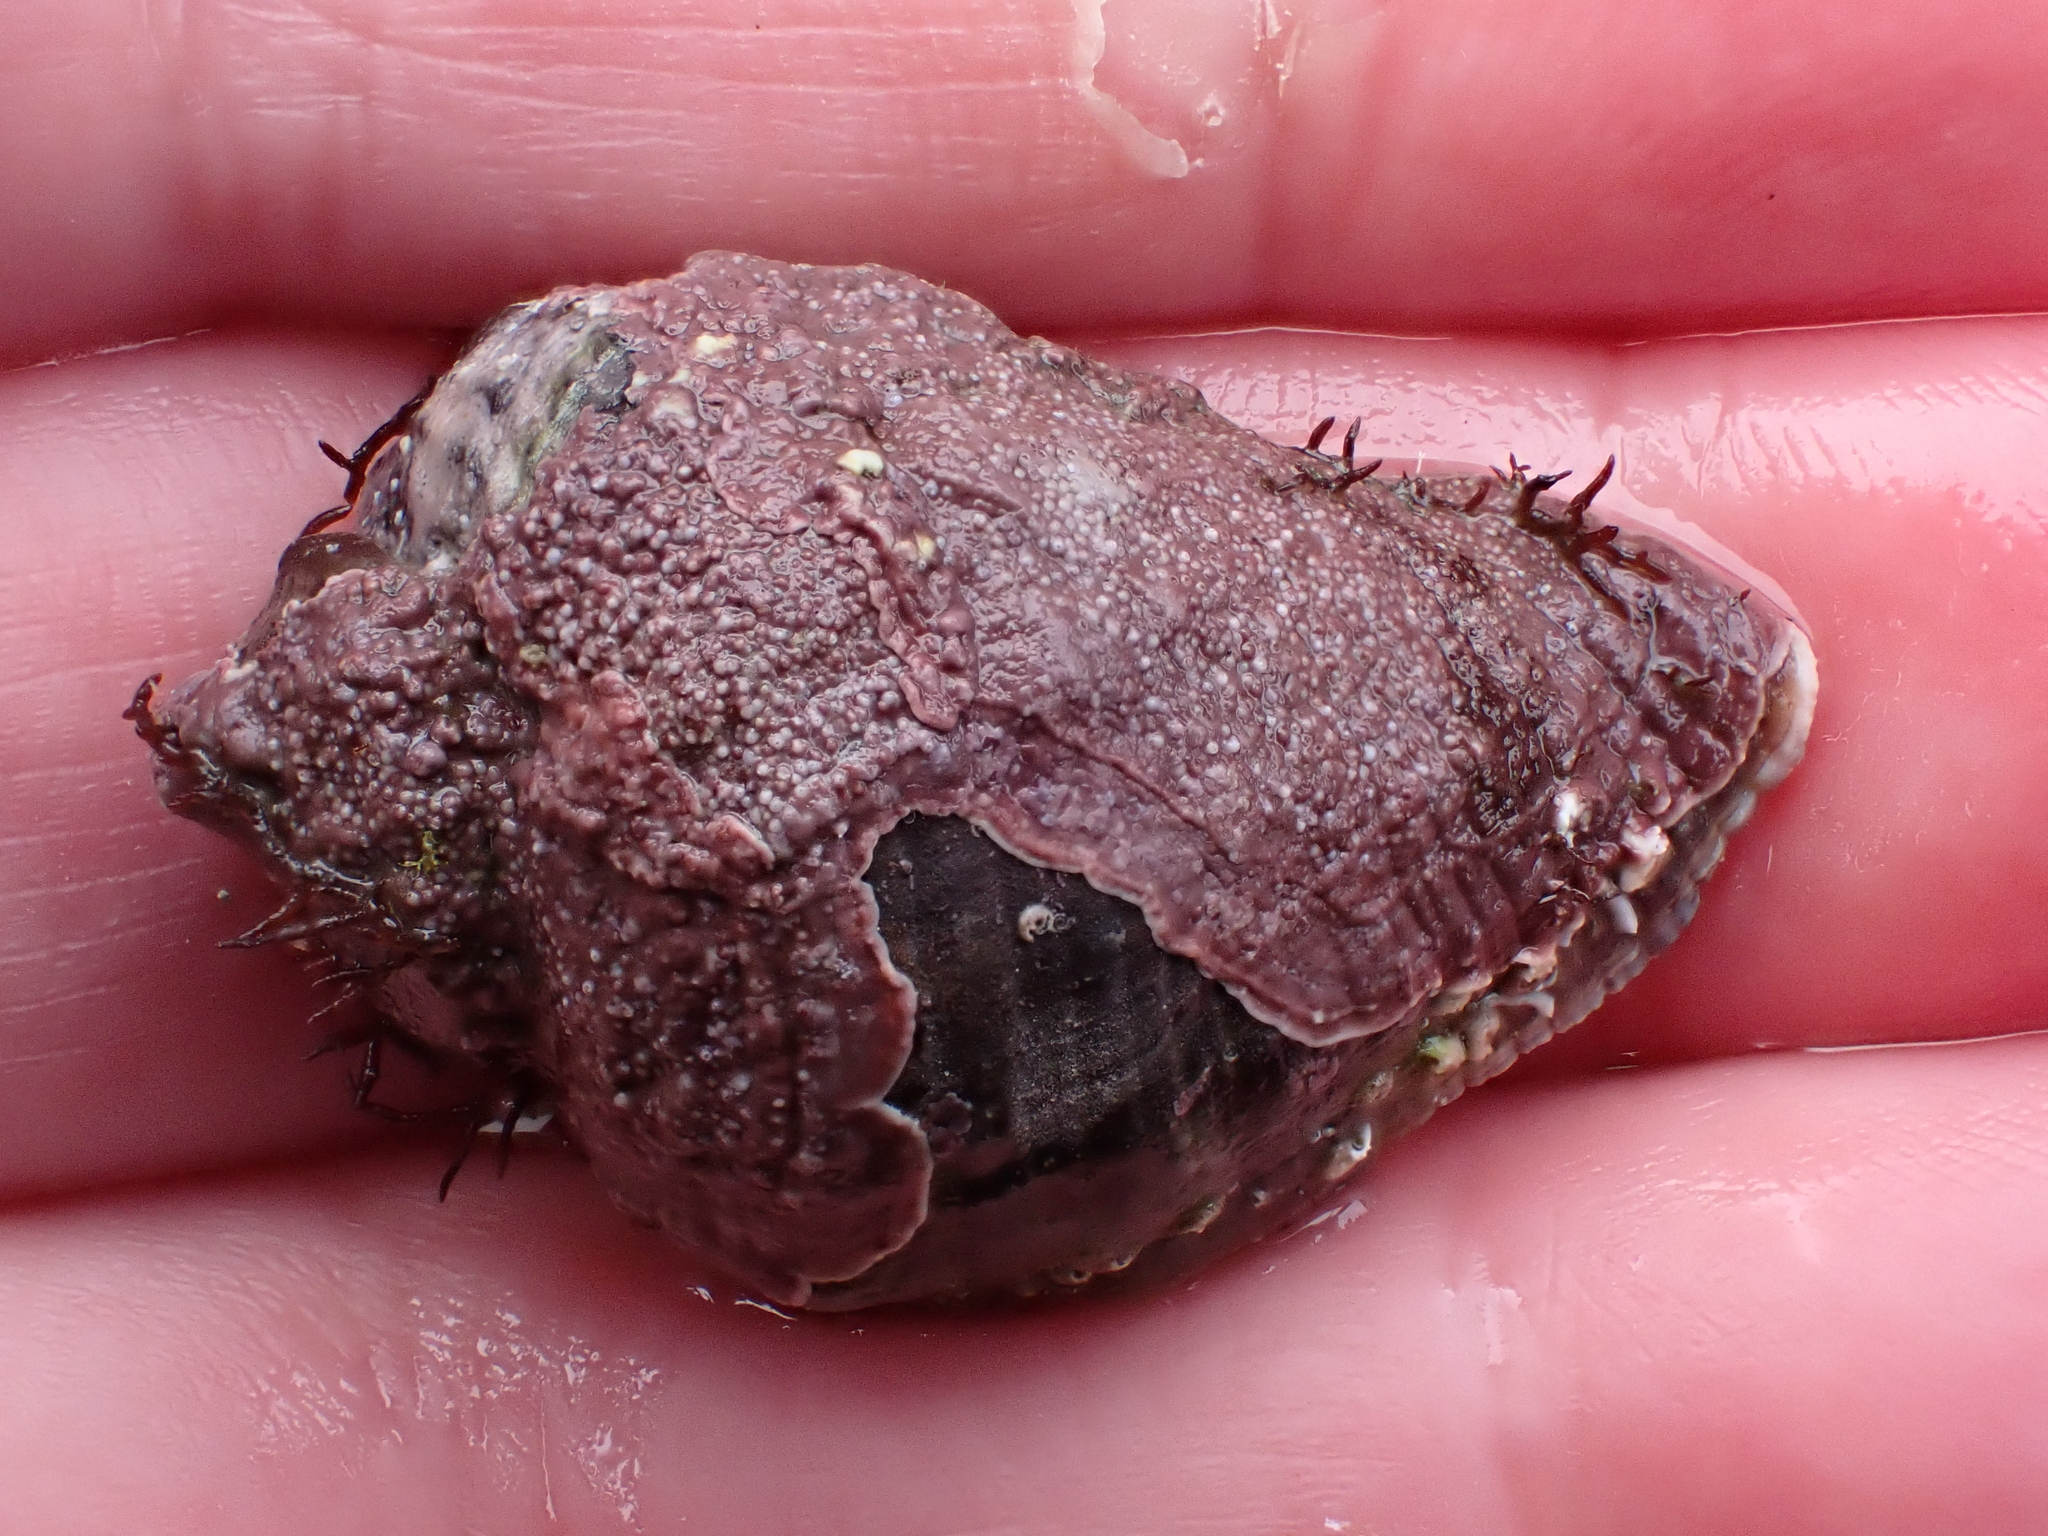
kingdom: Animalia
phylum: Mollusca
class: Gastropoda
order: Neogastropoda
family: Muricidae
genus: Haustrum
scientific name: Haustrum haustorium
